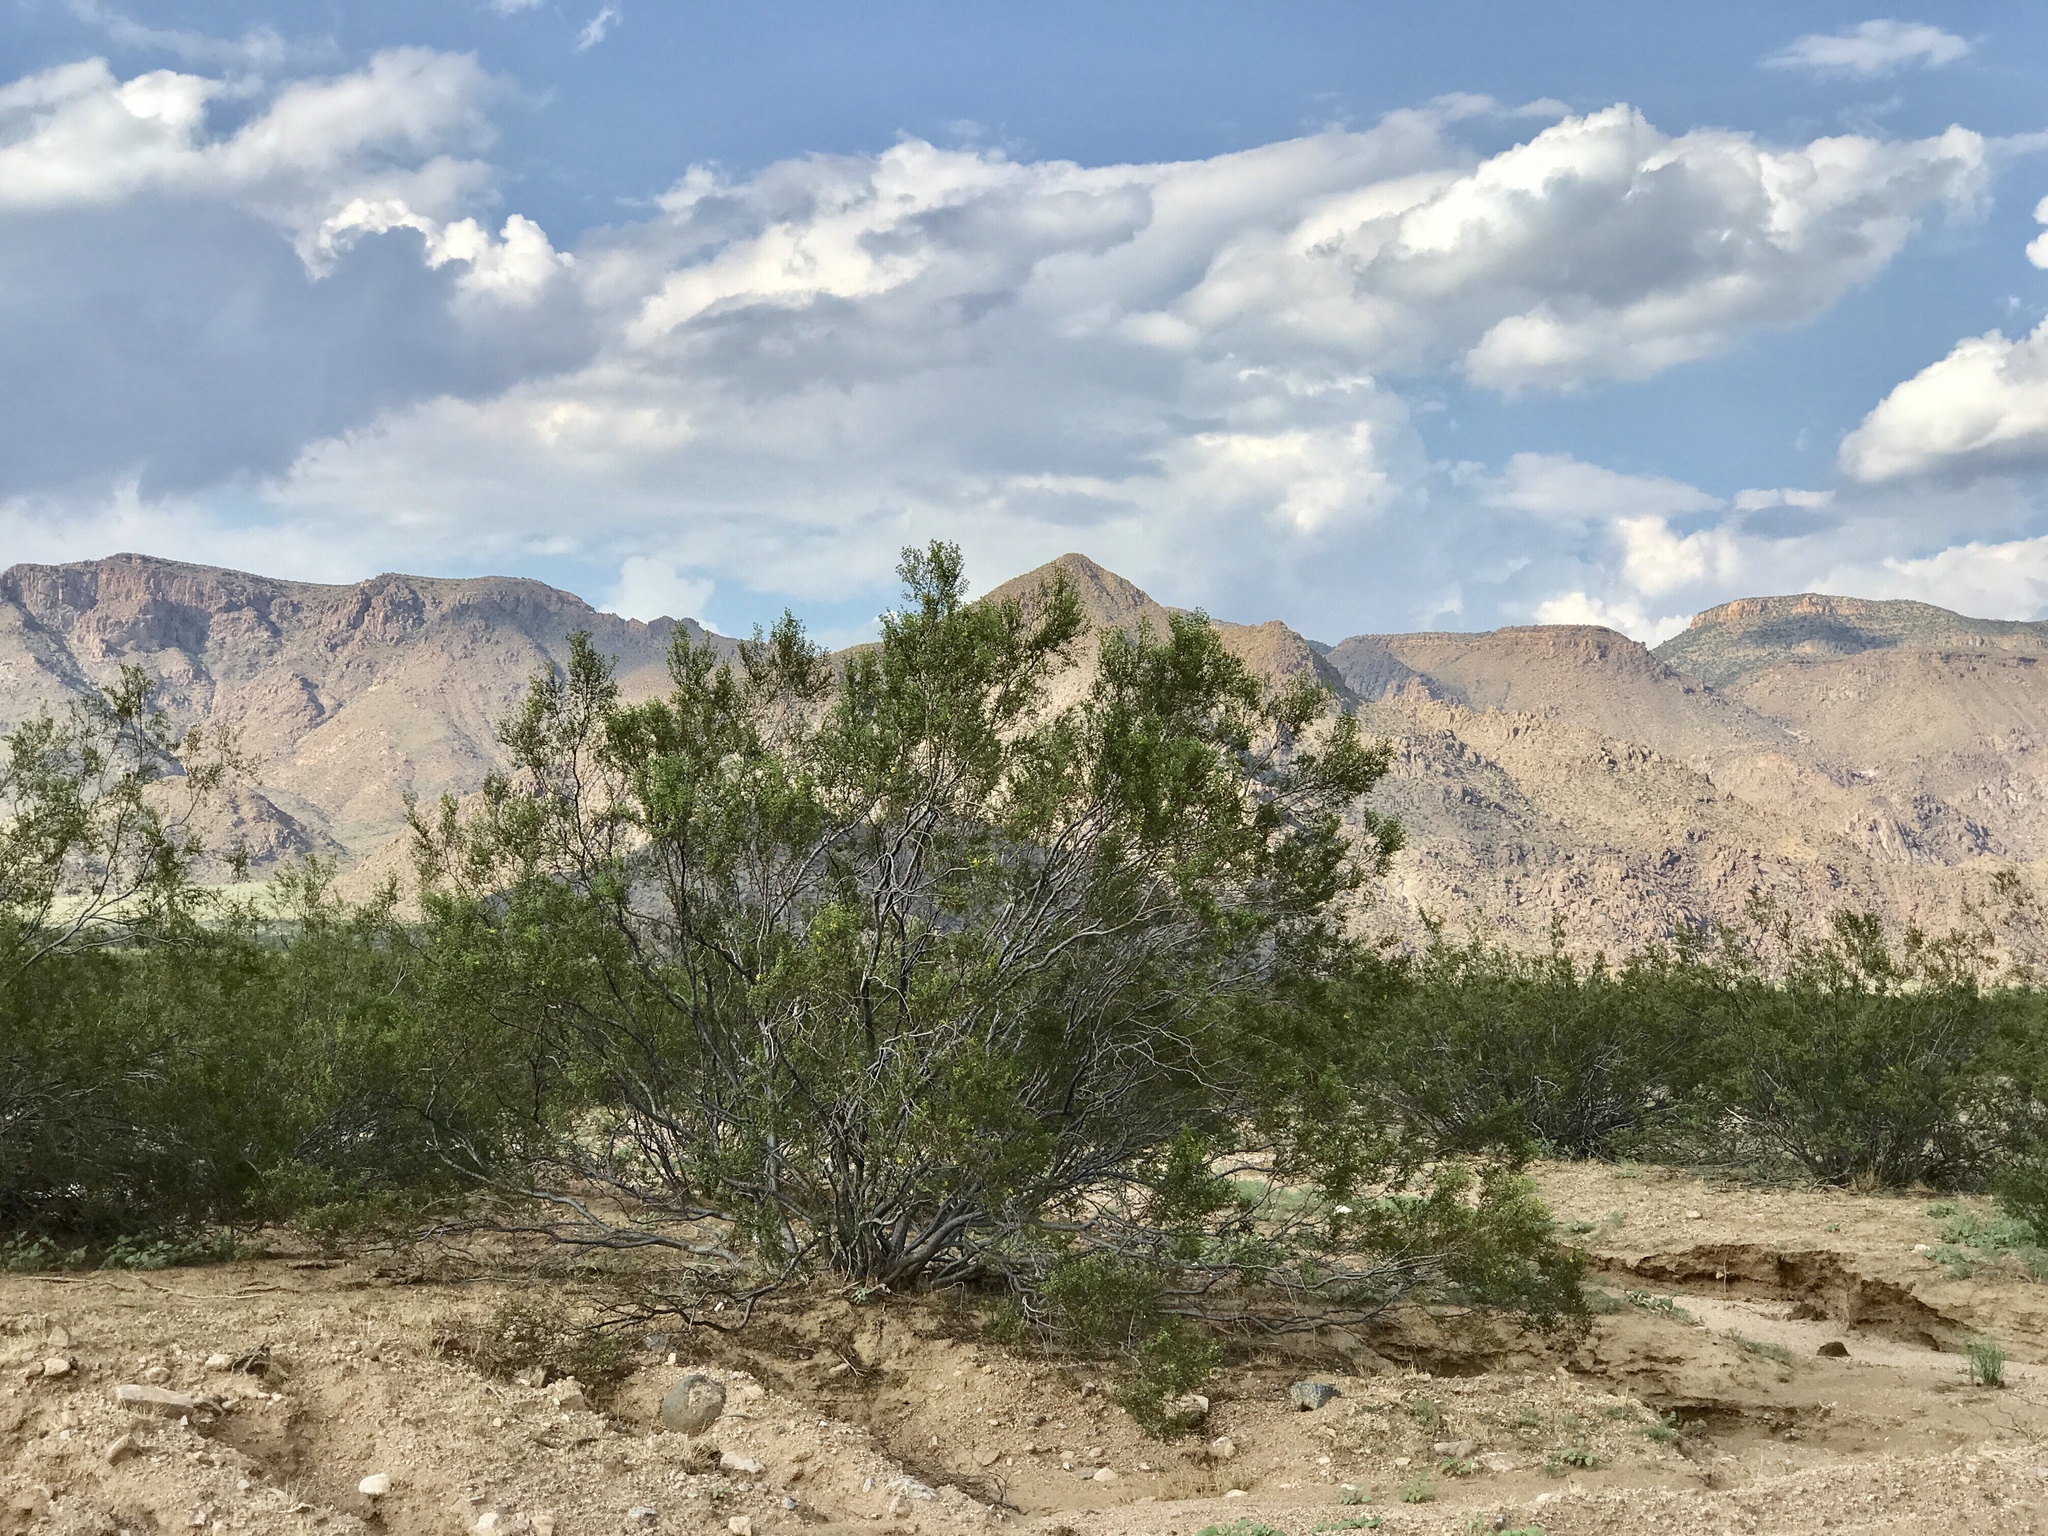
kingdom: Plantae
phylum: Tracheophyta
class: Magnoliopsida
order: Zygophyllales
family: Zygophyllaceae
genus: Larrea
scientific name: Larrea tridentata
